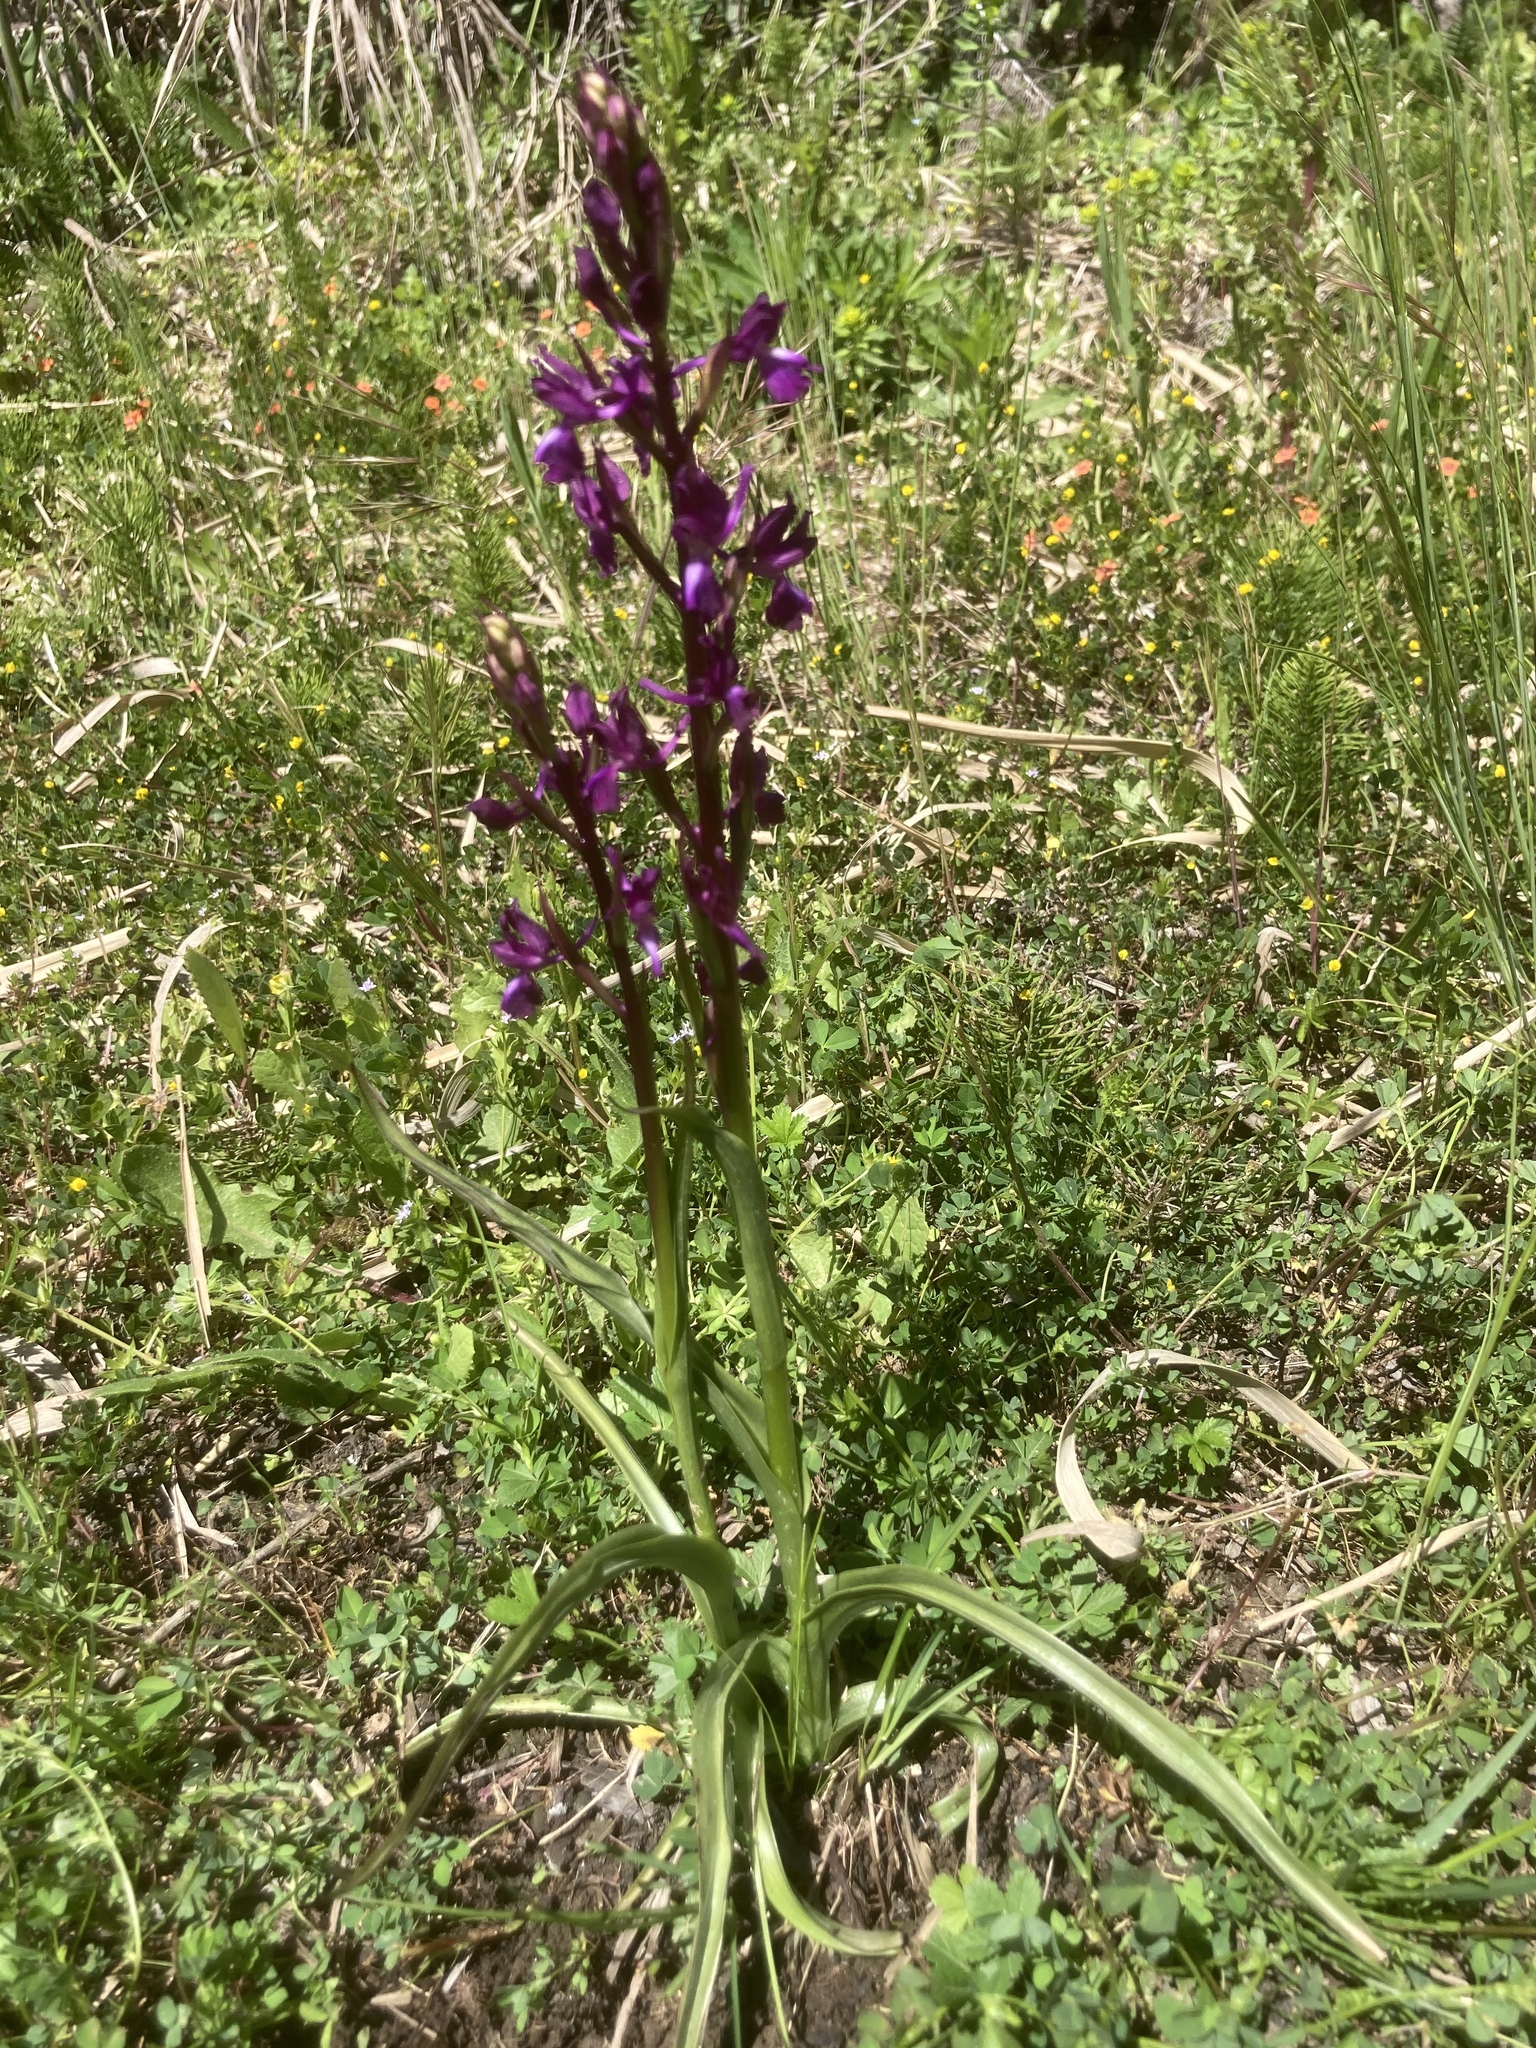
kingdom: Plantae
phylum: Tracheophyta
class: Liliopsida
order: Asparagales
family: Orchidaceae
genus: Anacamptis
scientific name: Anacamptis laxiflora
